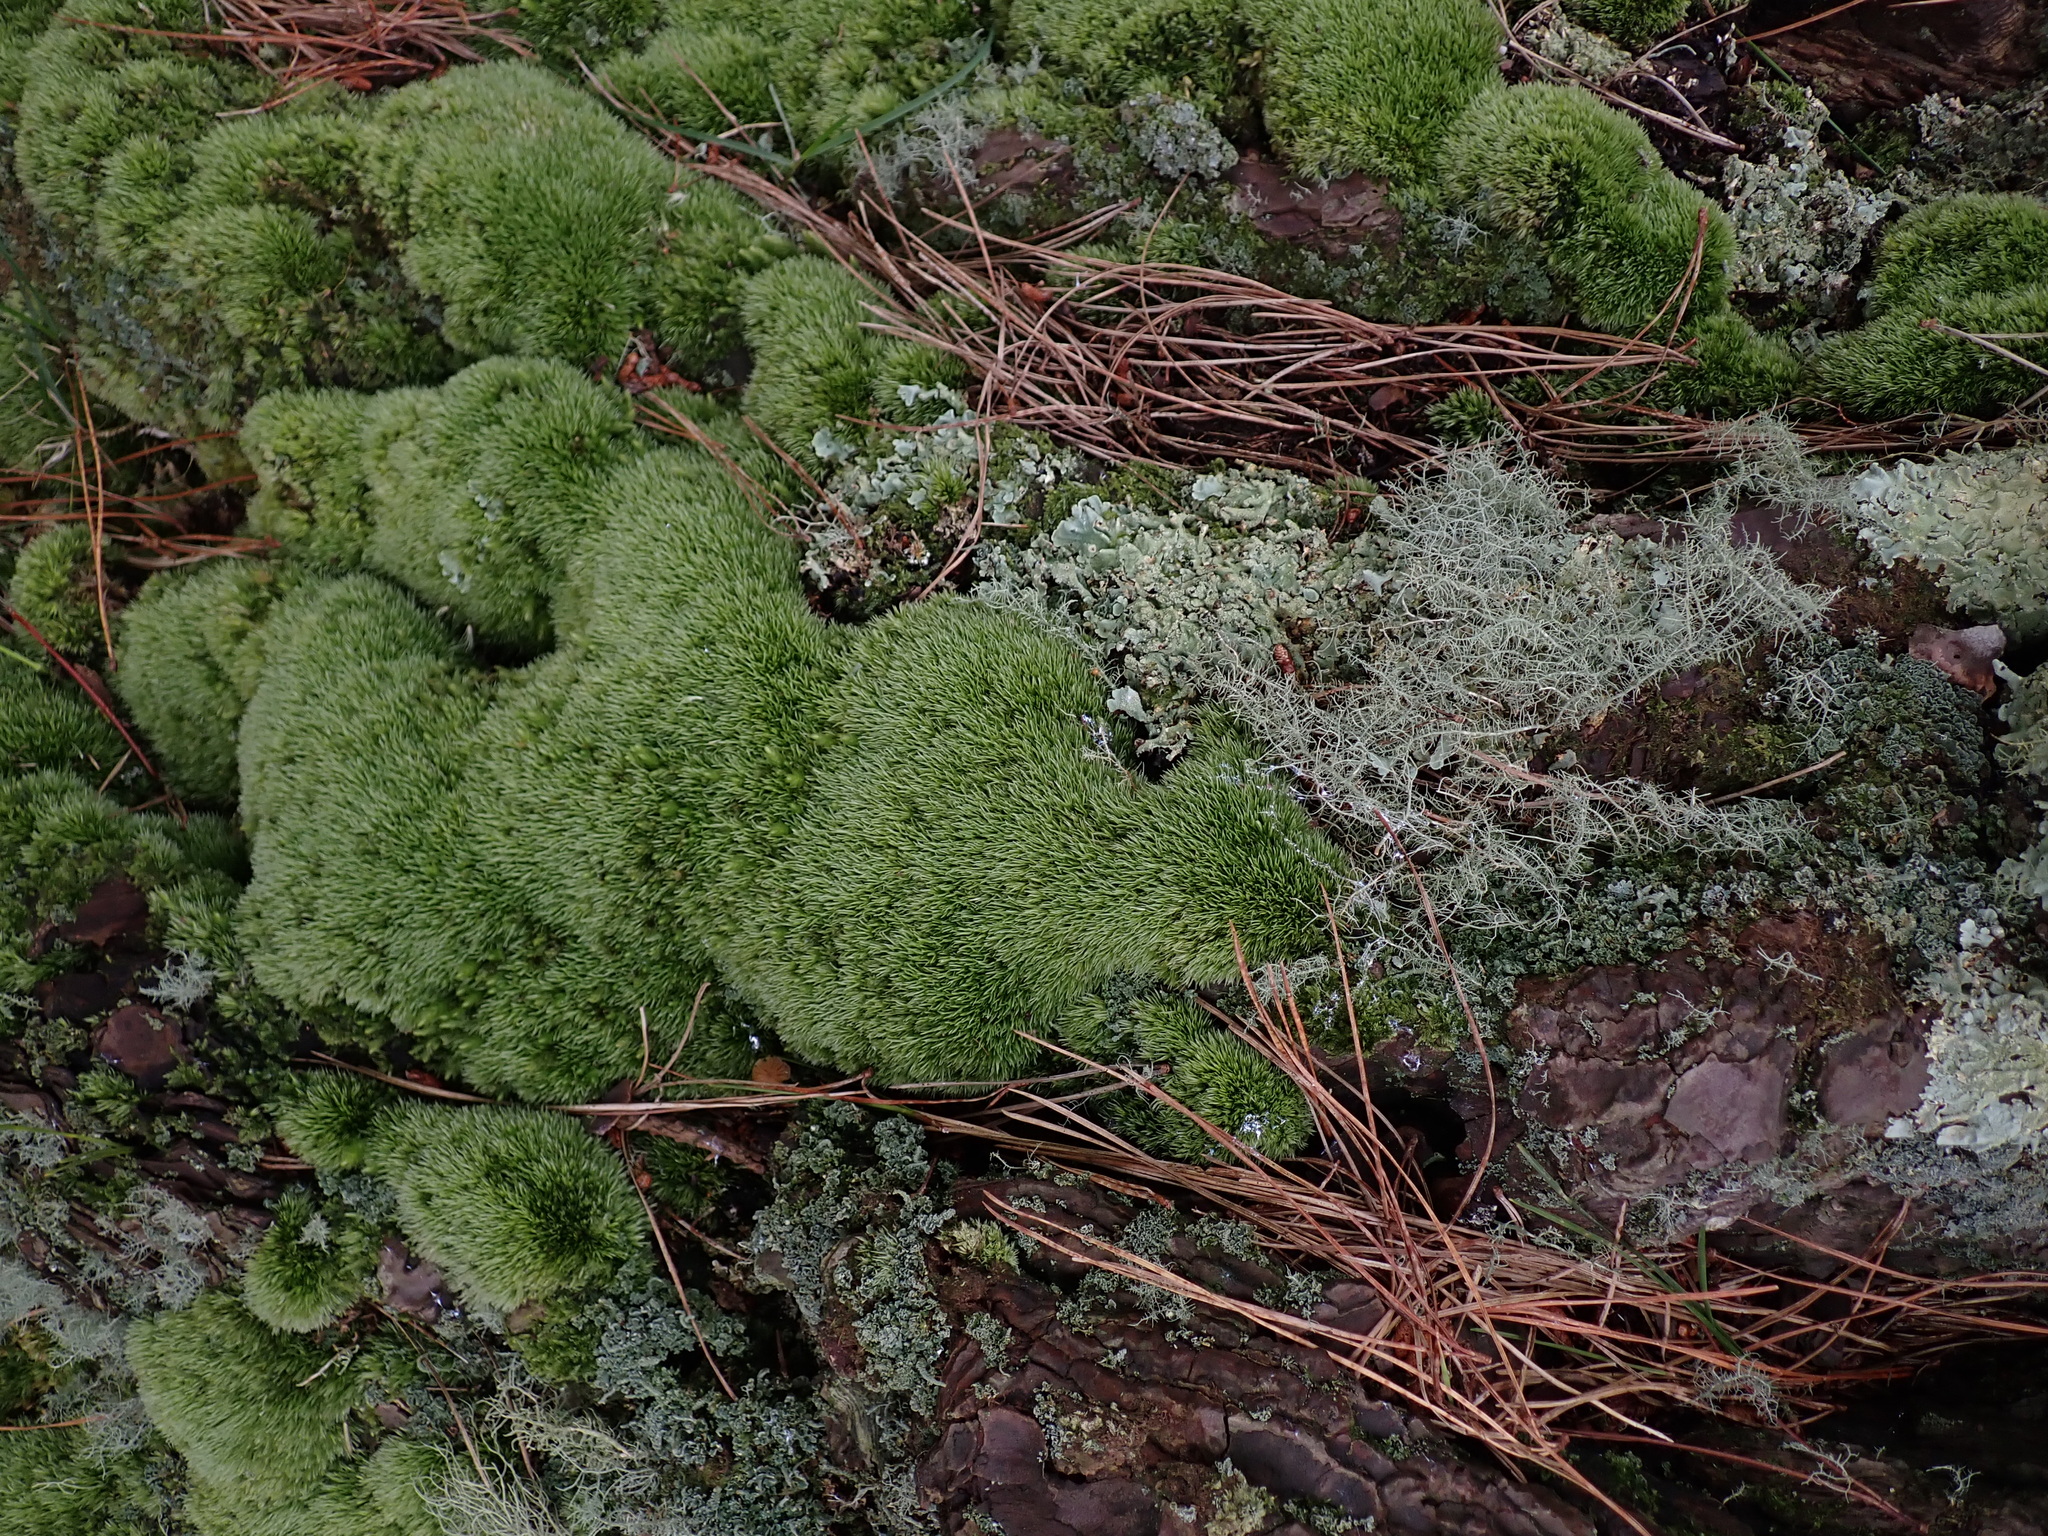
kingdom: Plantae
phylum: Bryophyta
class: Bryopsida
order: Dicranales
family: Leucobryaceae
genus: Leucobryum
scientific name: Leucobryum glaucum
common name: Large white-moss
